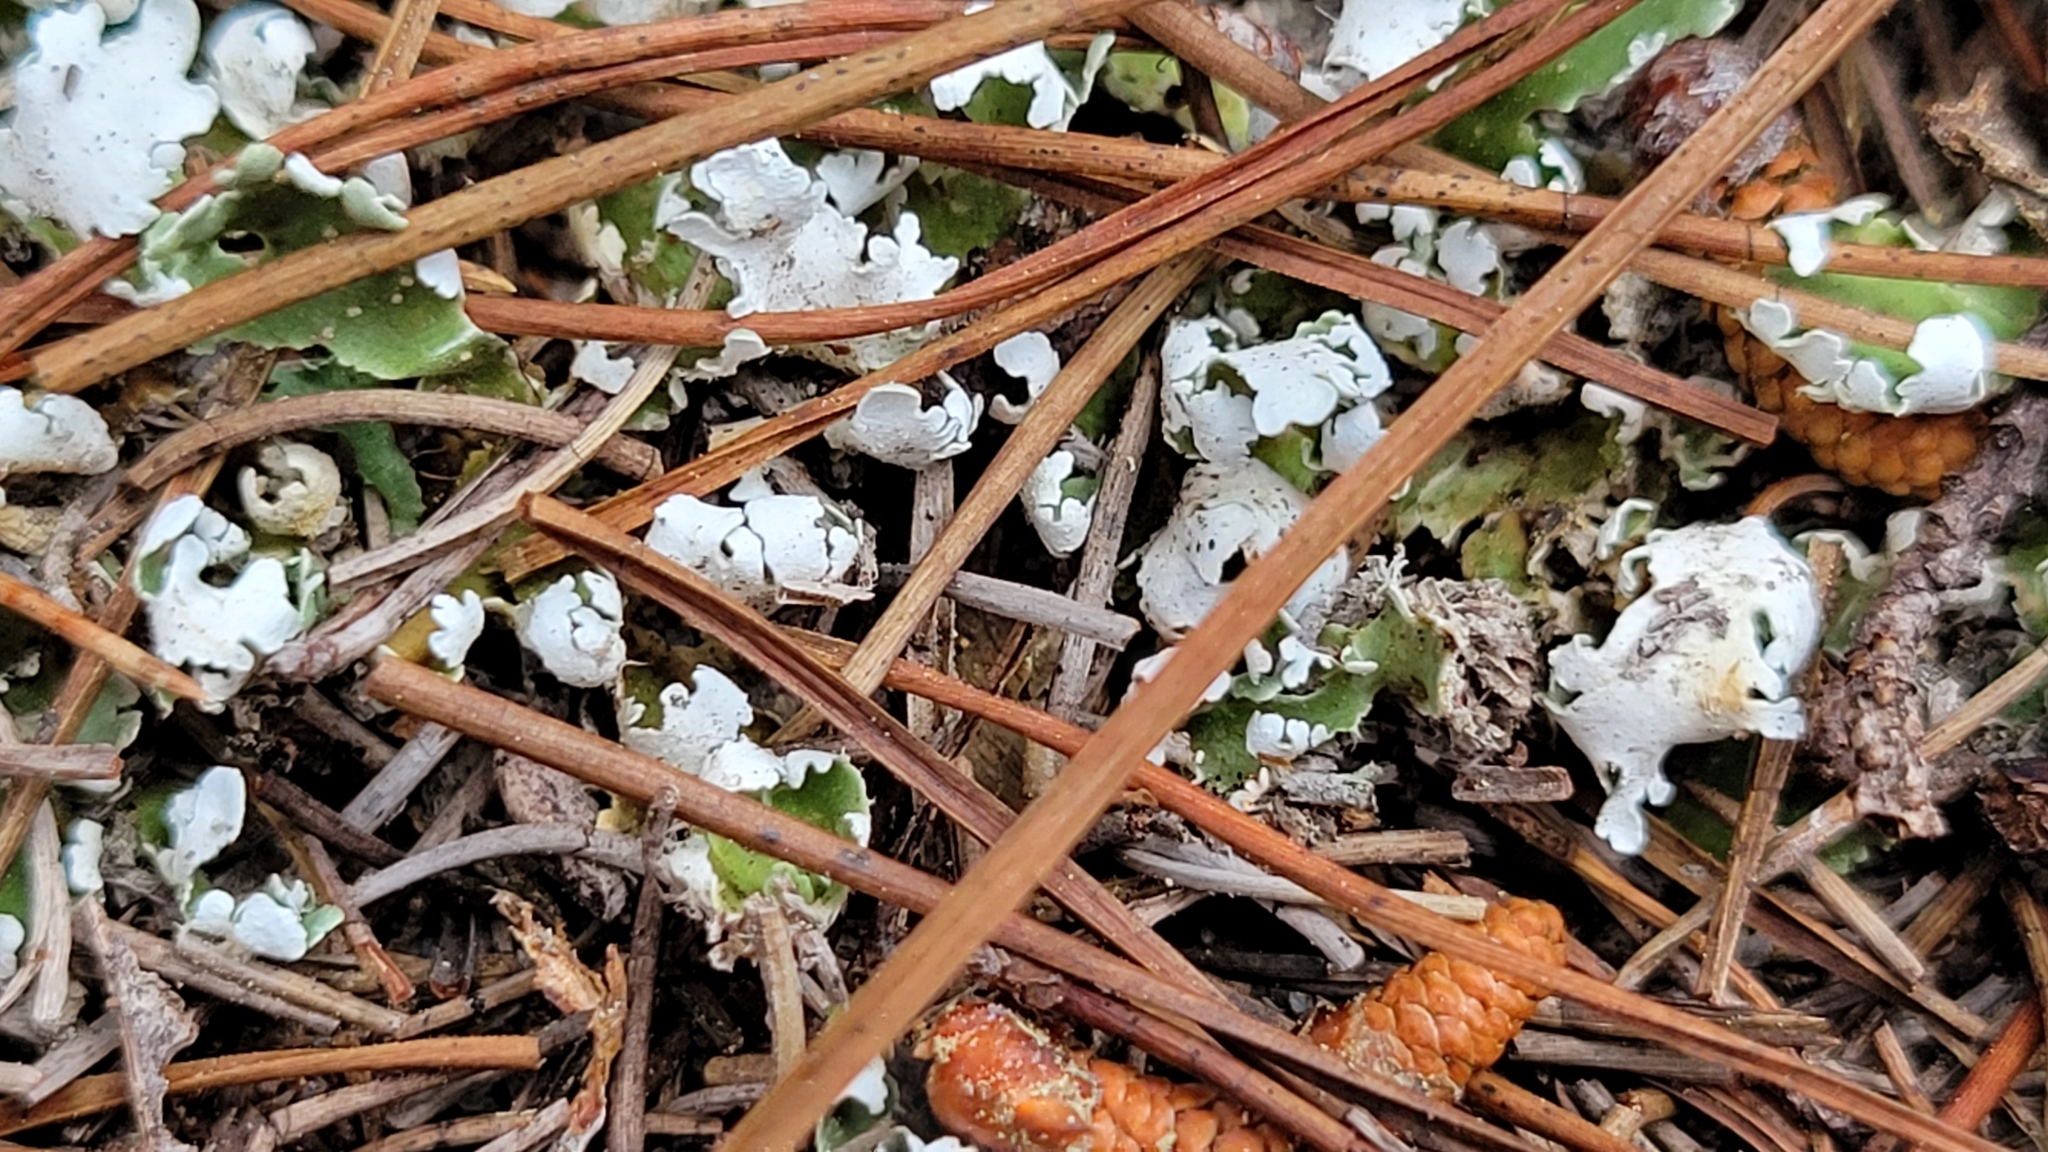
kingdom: Fungi
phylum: Ascomycota
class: Lecanoromycetes
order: Lecanorales
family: Cladoniaceae
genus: Cladonia
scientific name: Cladonia prostrata
